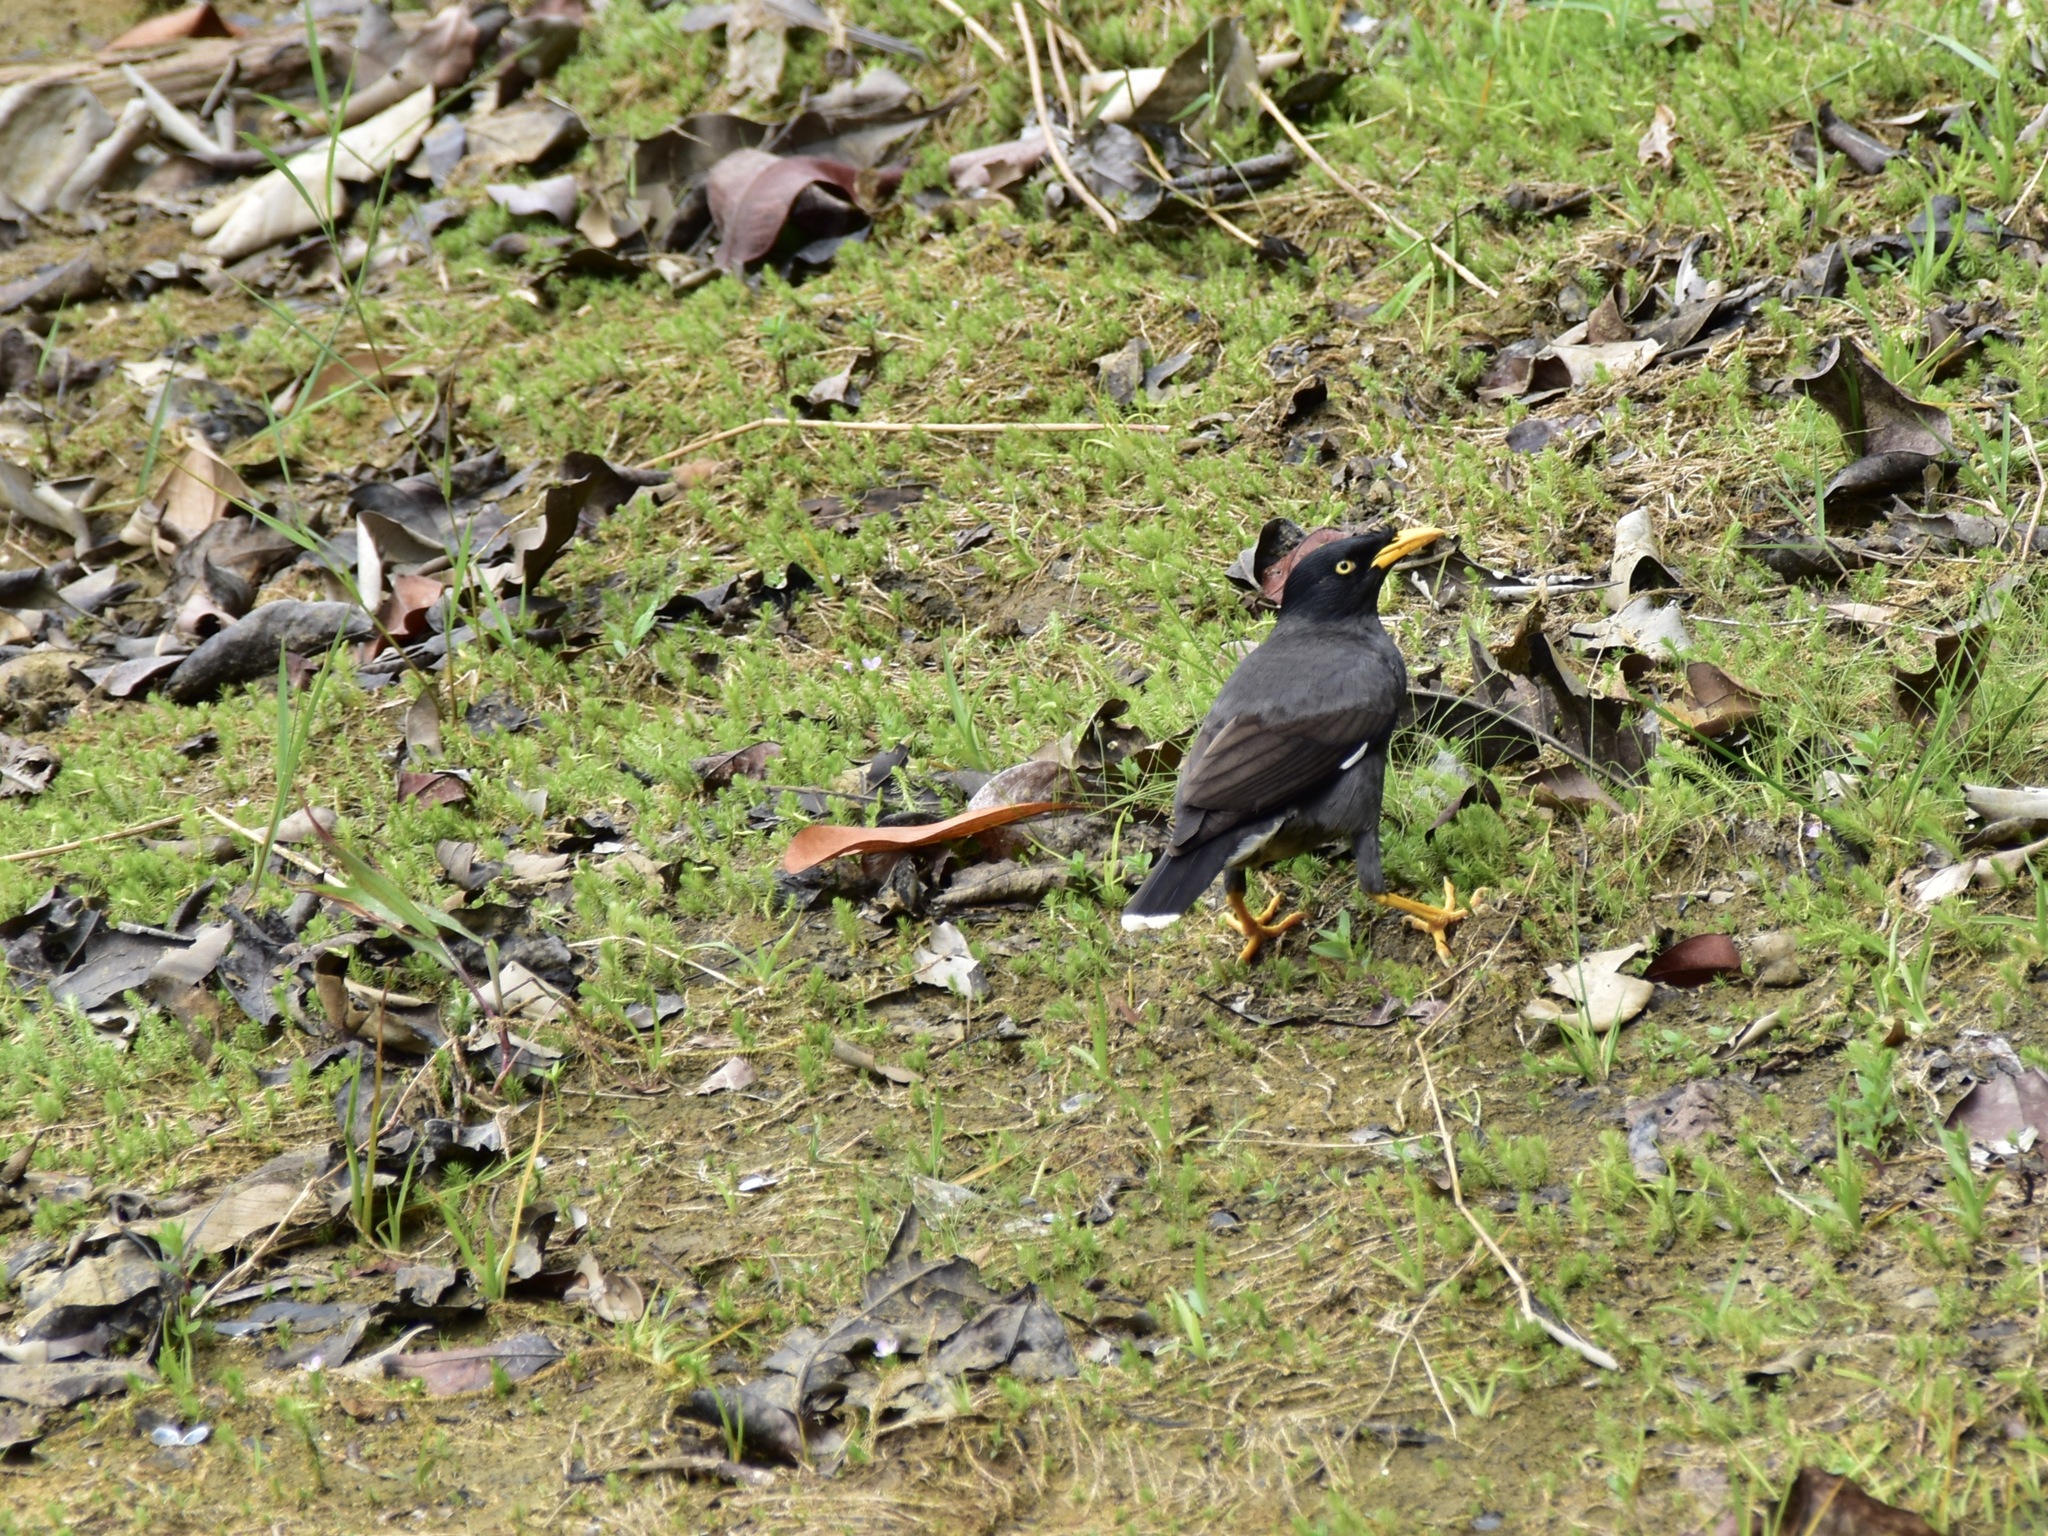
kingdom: Animalia
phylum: Chordata
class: Aves
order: Passeriformes
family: Sturnidae
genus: Acridotheres
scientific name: Acridotheres javanicus
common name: Javan myna
